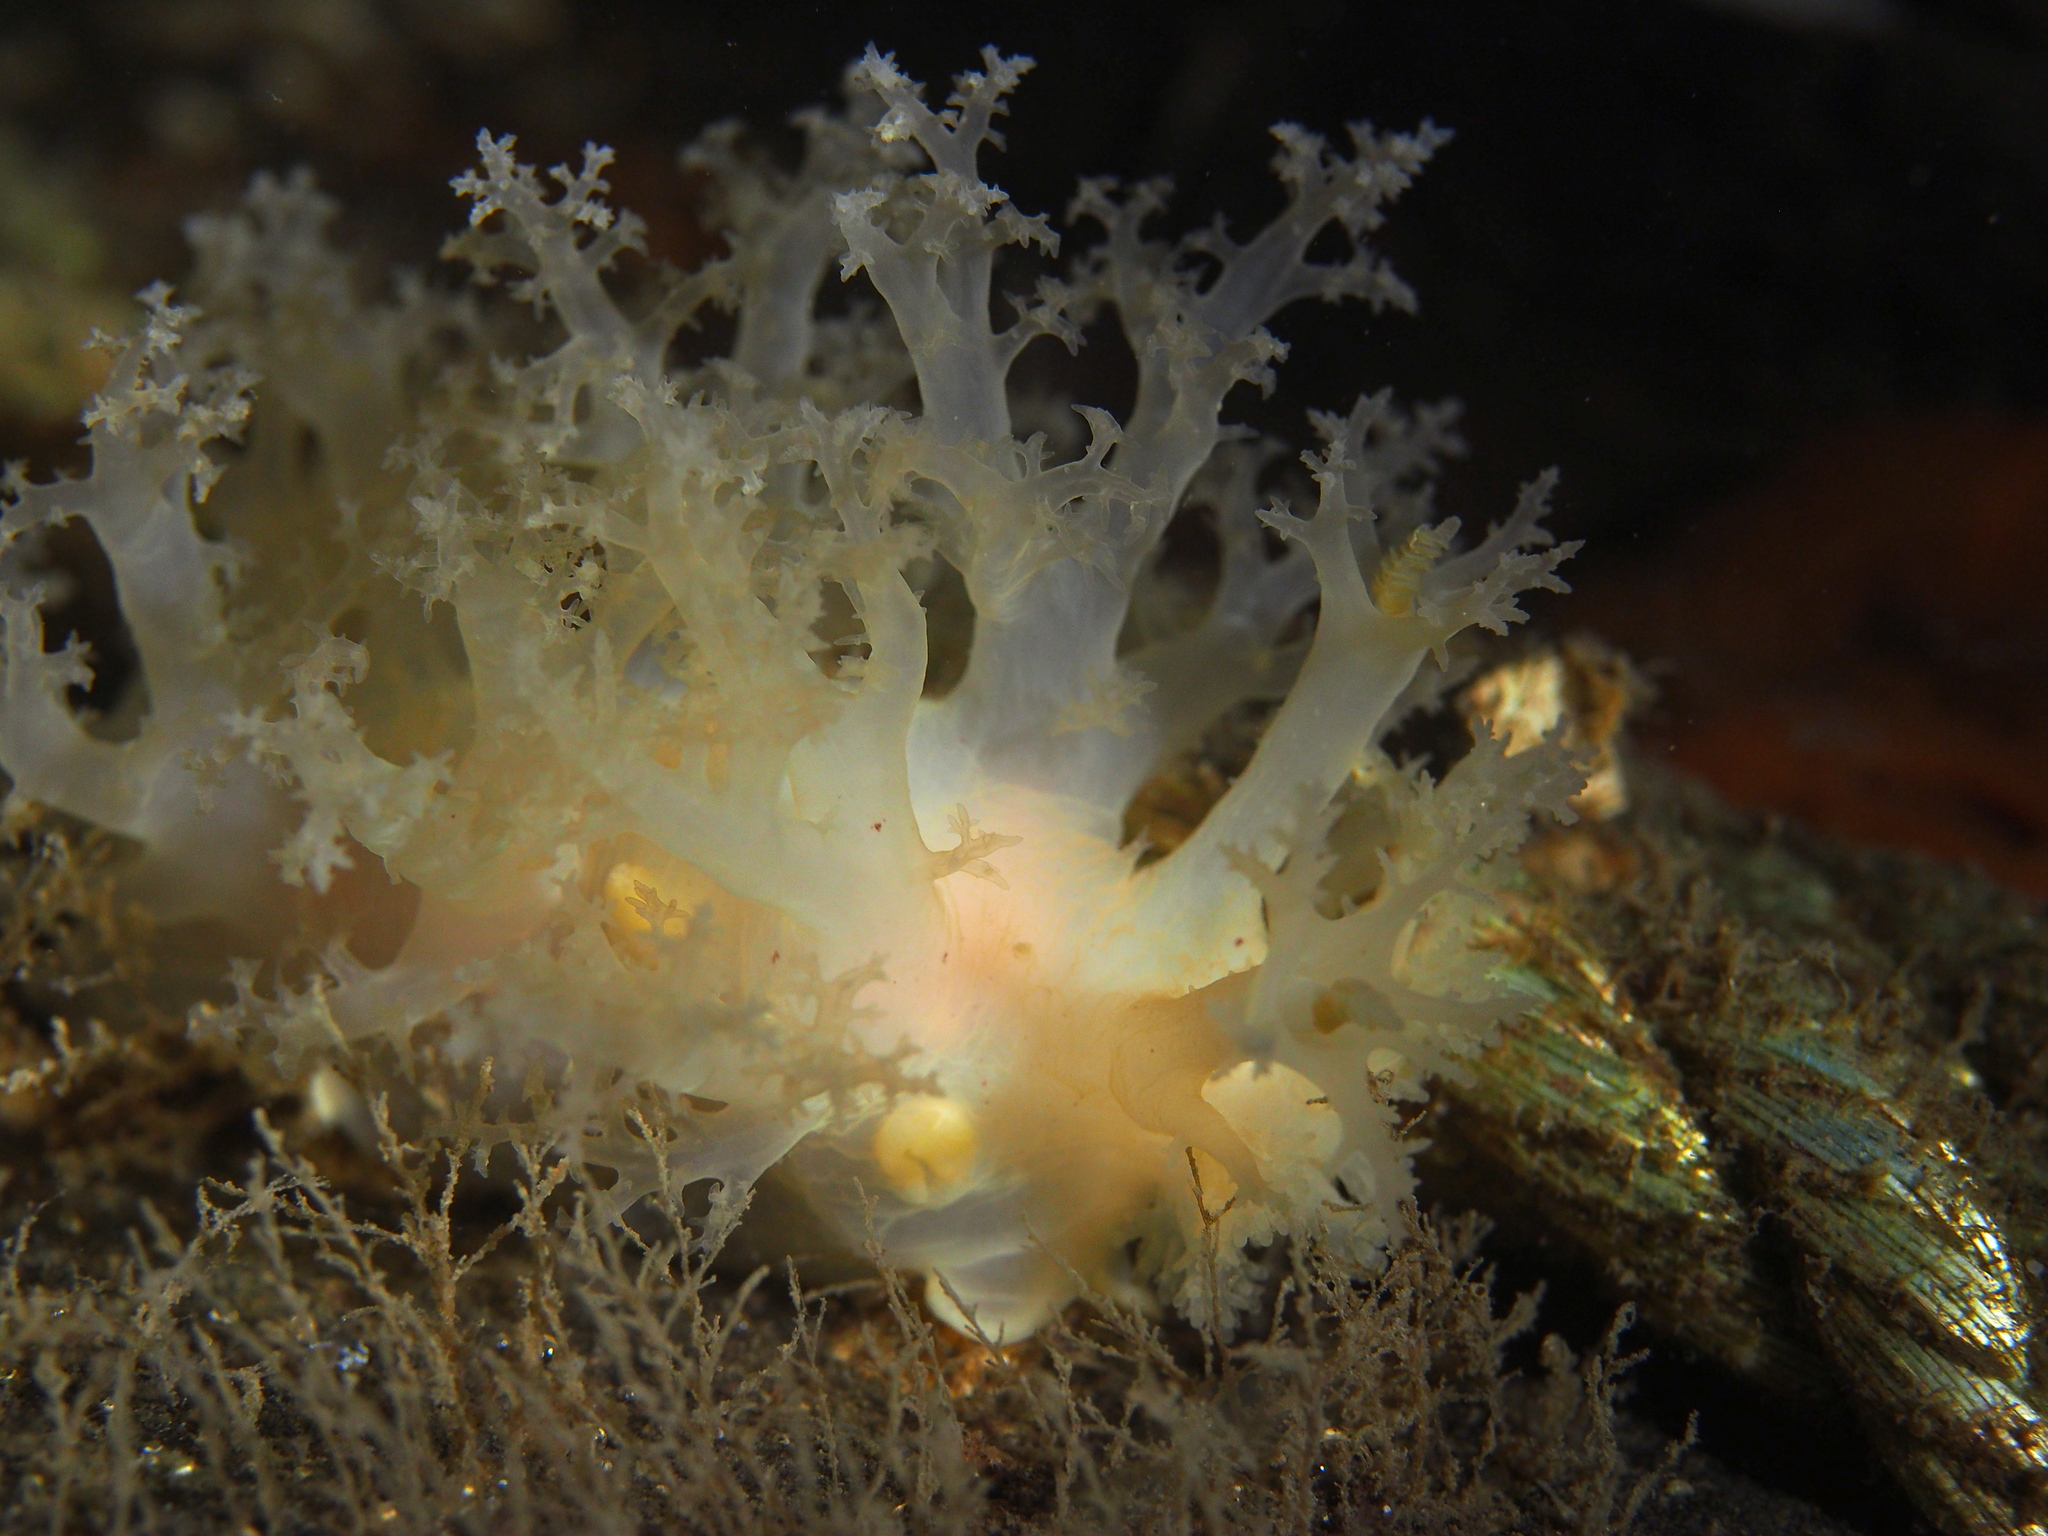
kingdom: Animalia
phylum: Mollusca
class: Gastropoda
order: Nudibranchia
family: Dendronotidae
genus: Dendronotus
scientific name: Dendronotus lacteus
